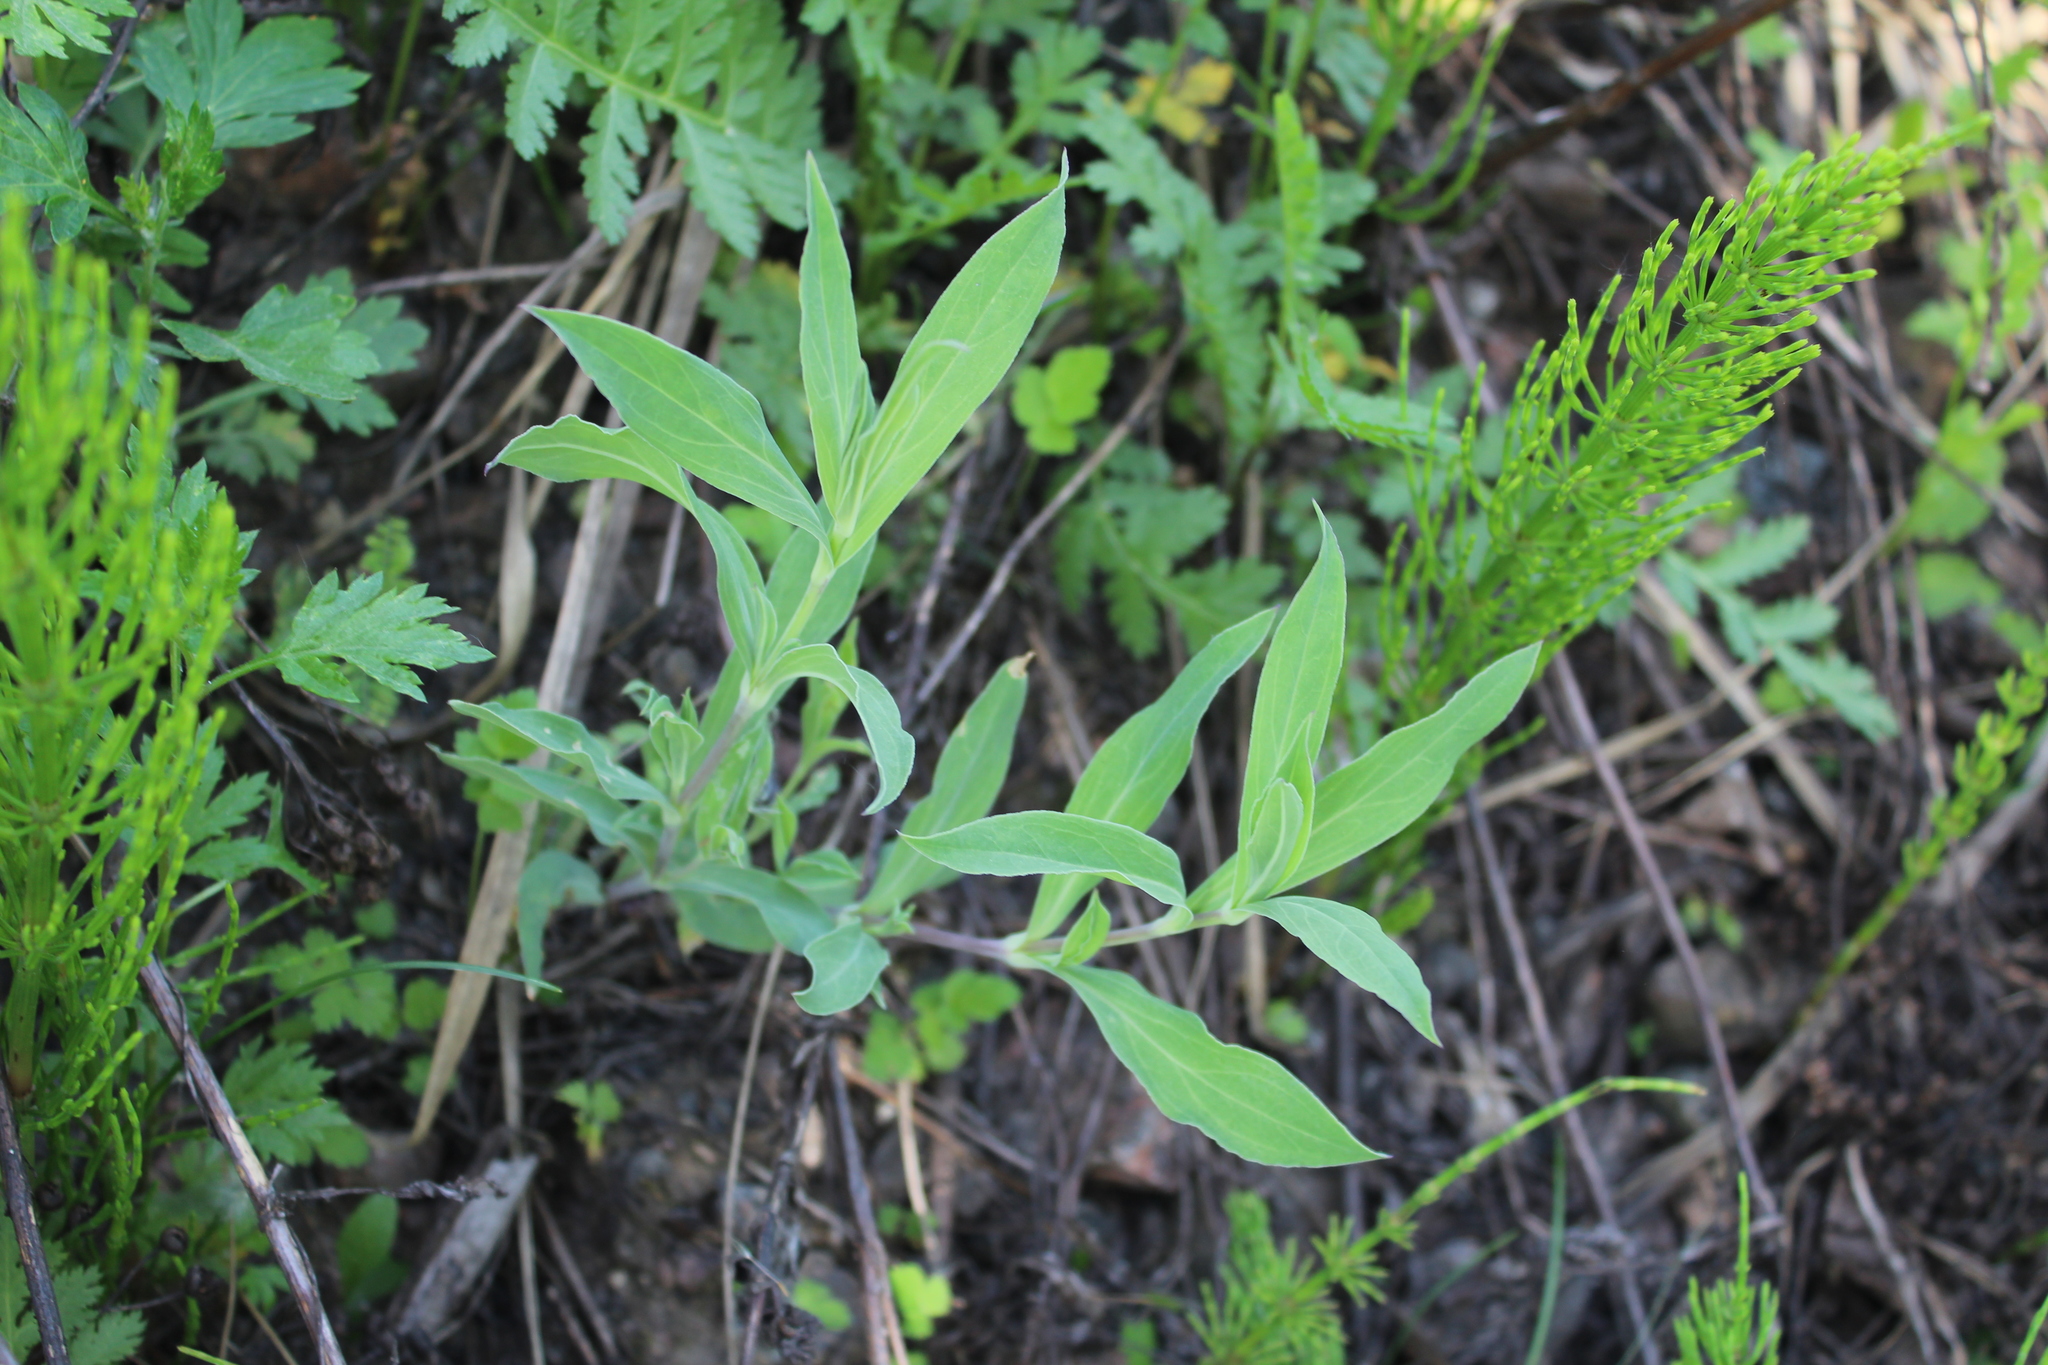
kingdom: Plantae
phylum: Tracheophyta
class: Magnoliopsida
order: Caryophyllales
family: Caryophyllaceae
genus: Silene
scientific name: Silene vulgaris
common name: Bladder campion
